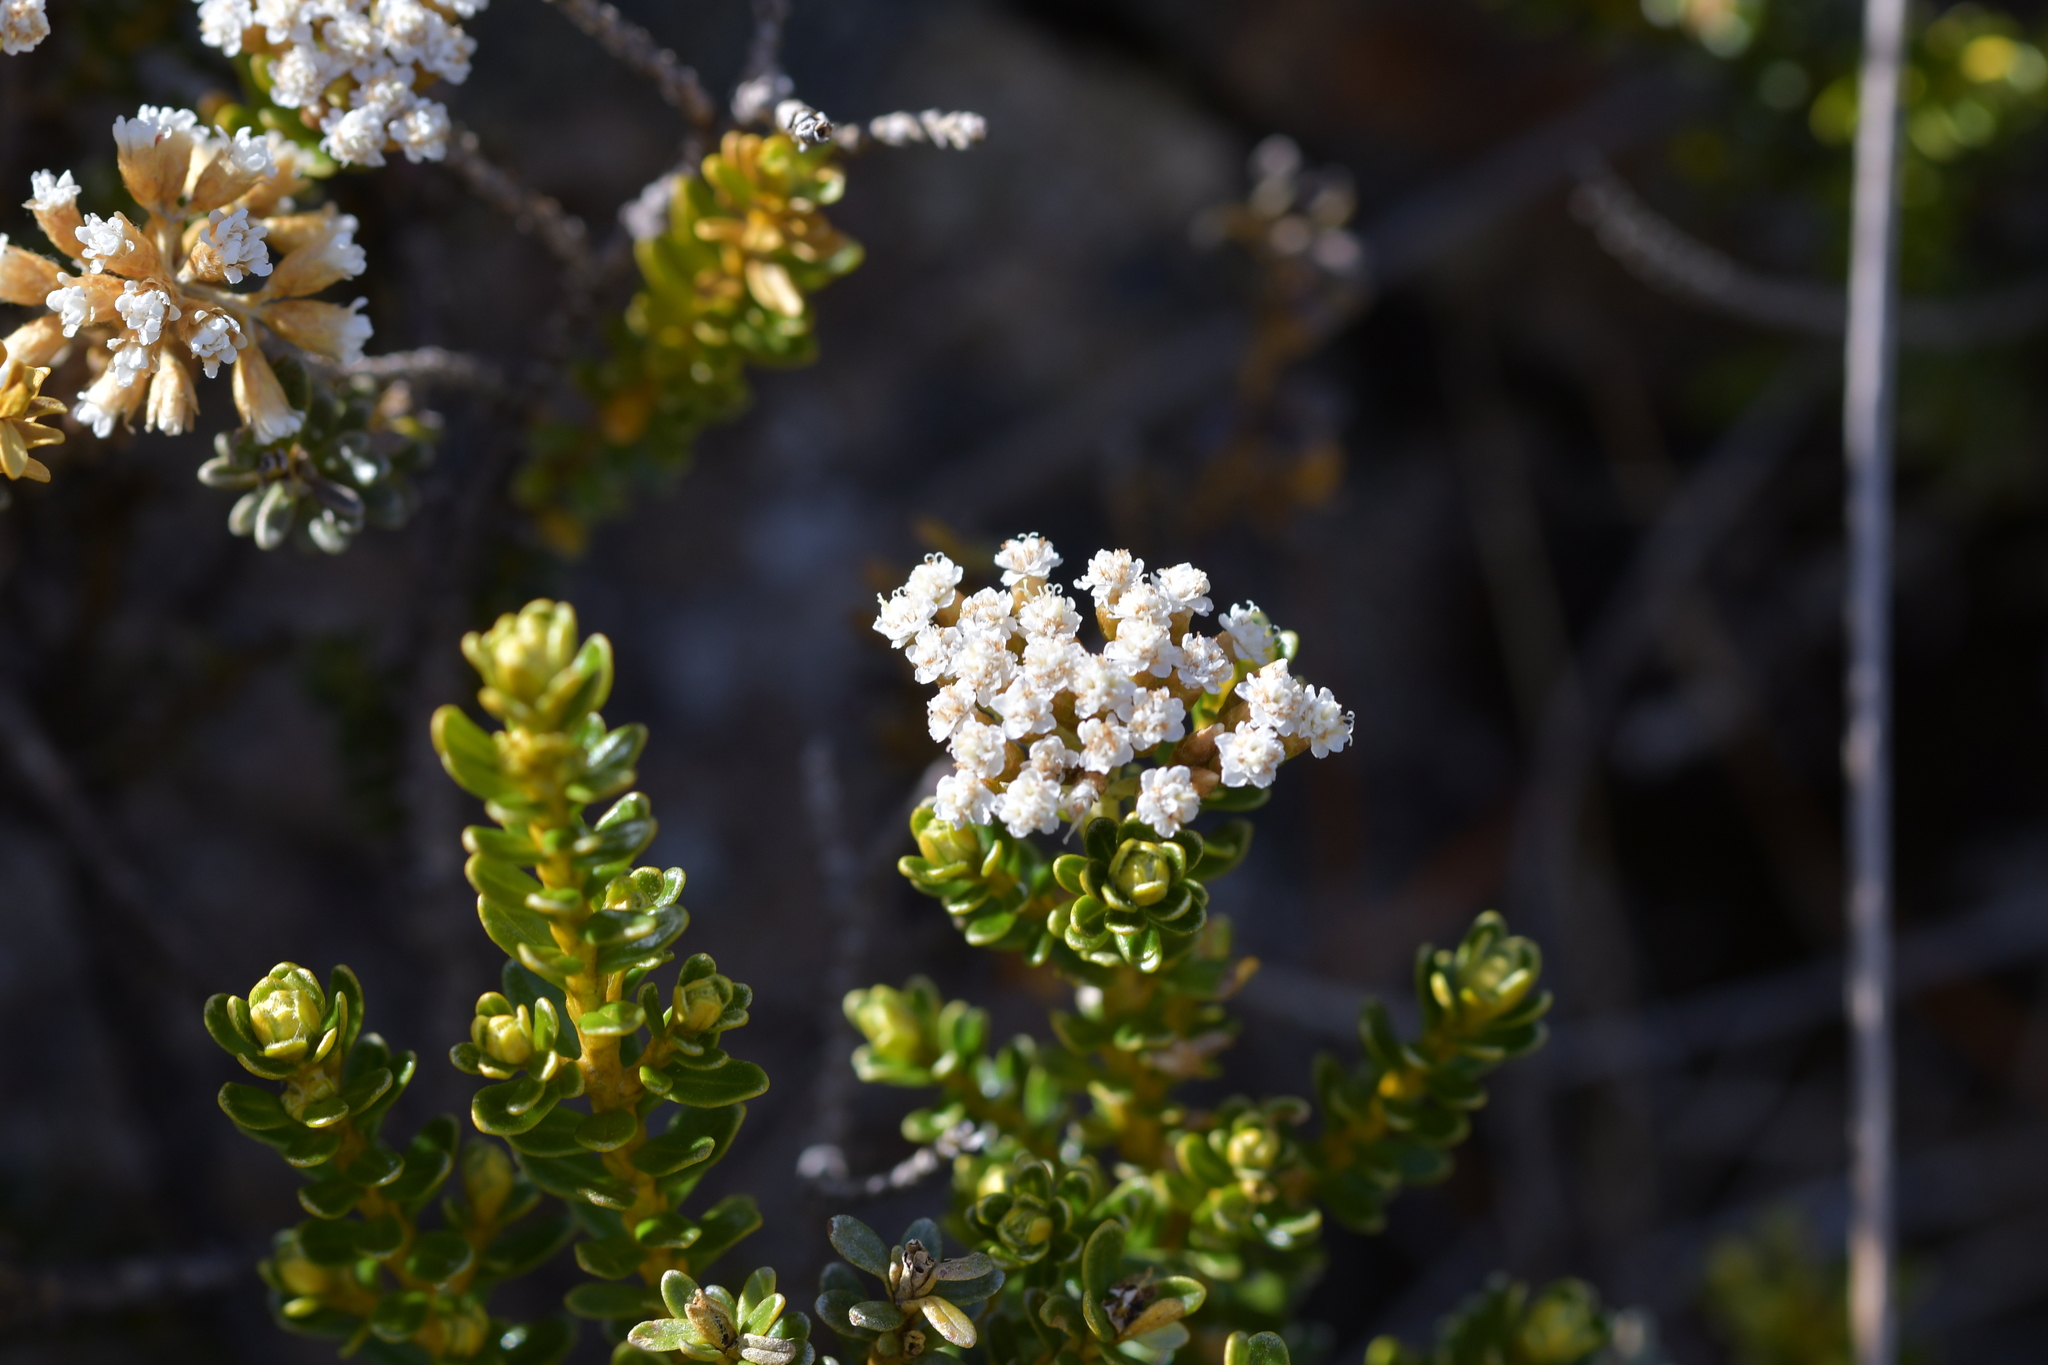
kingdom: Plantae
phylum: Tracheophyta
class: Magnoliopsida
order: Asterales
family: Asteraceae
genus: Ozothamnus
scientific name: Ozothamnus leptophyllus
